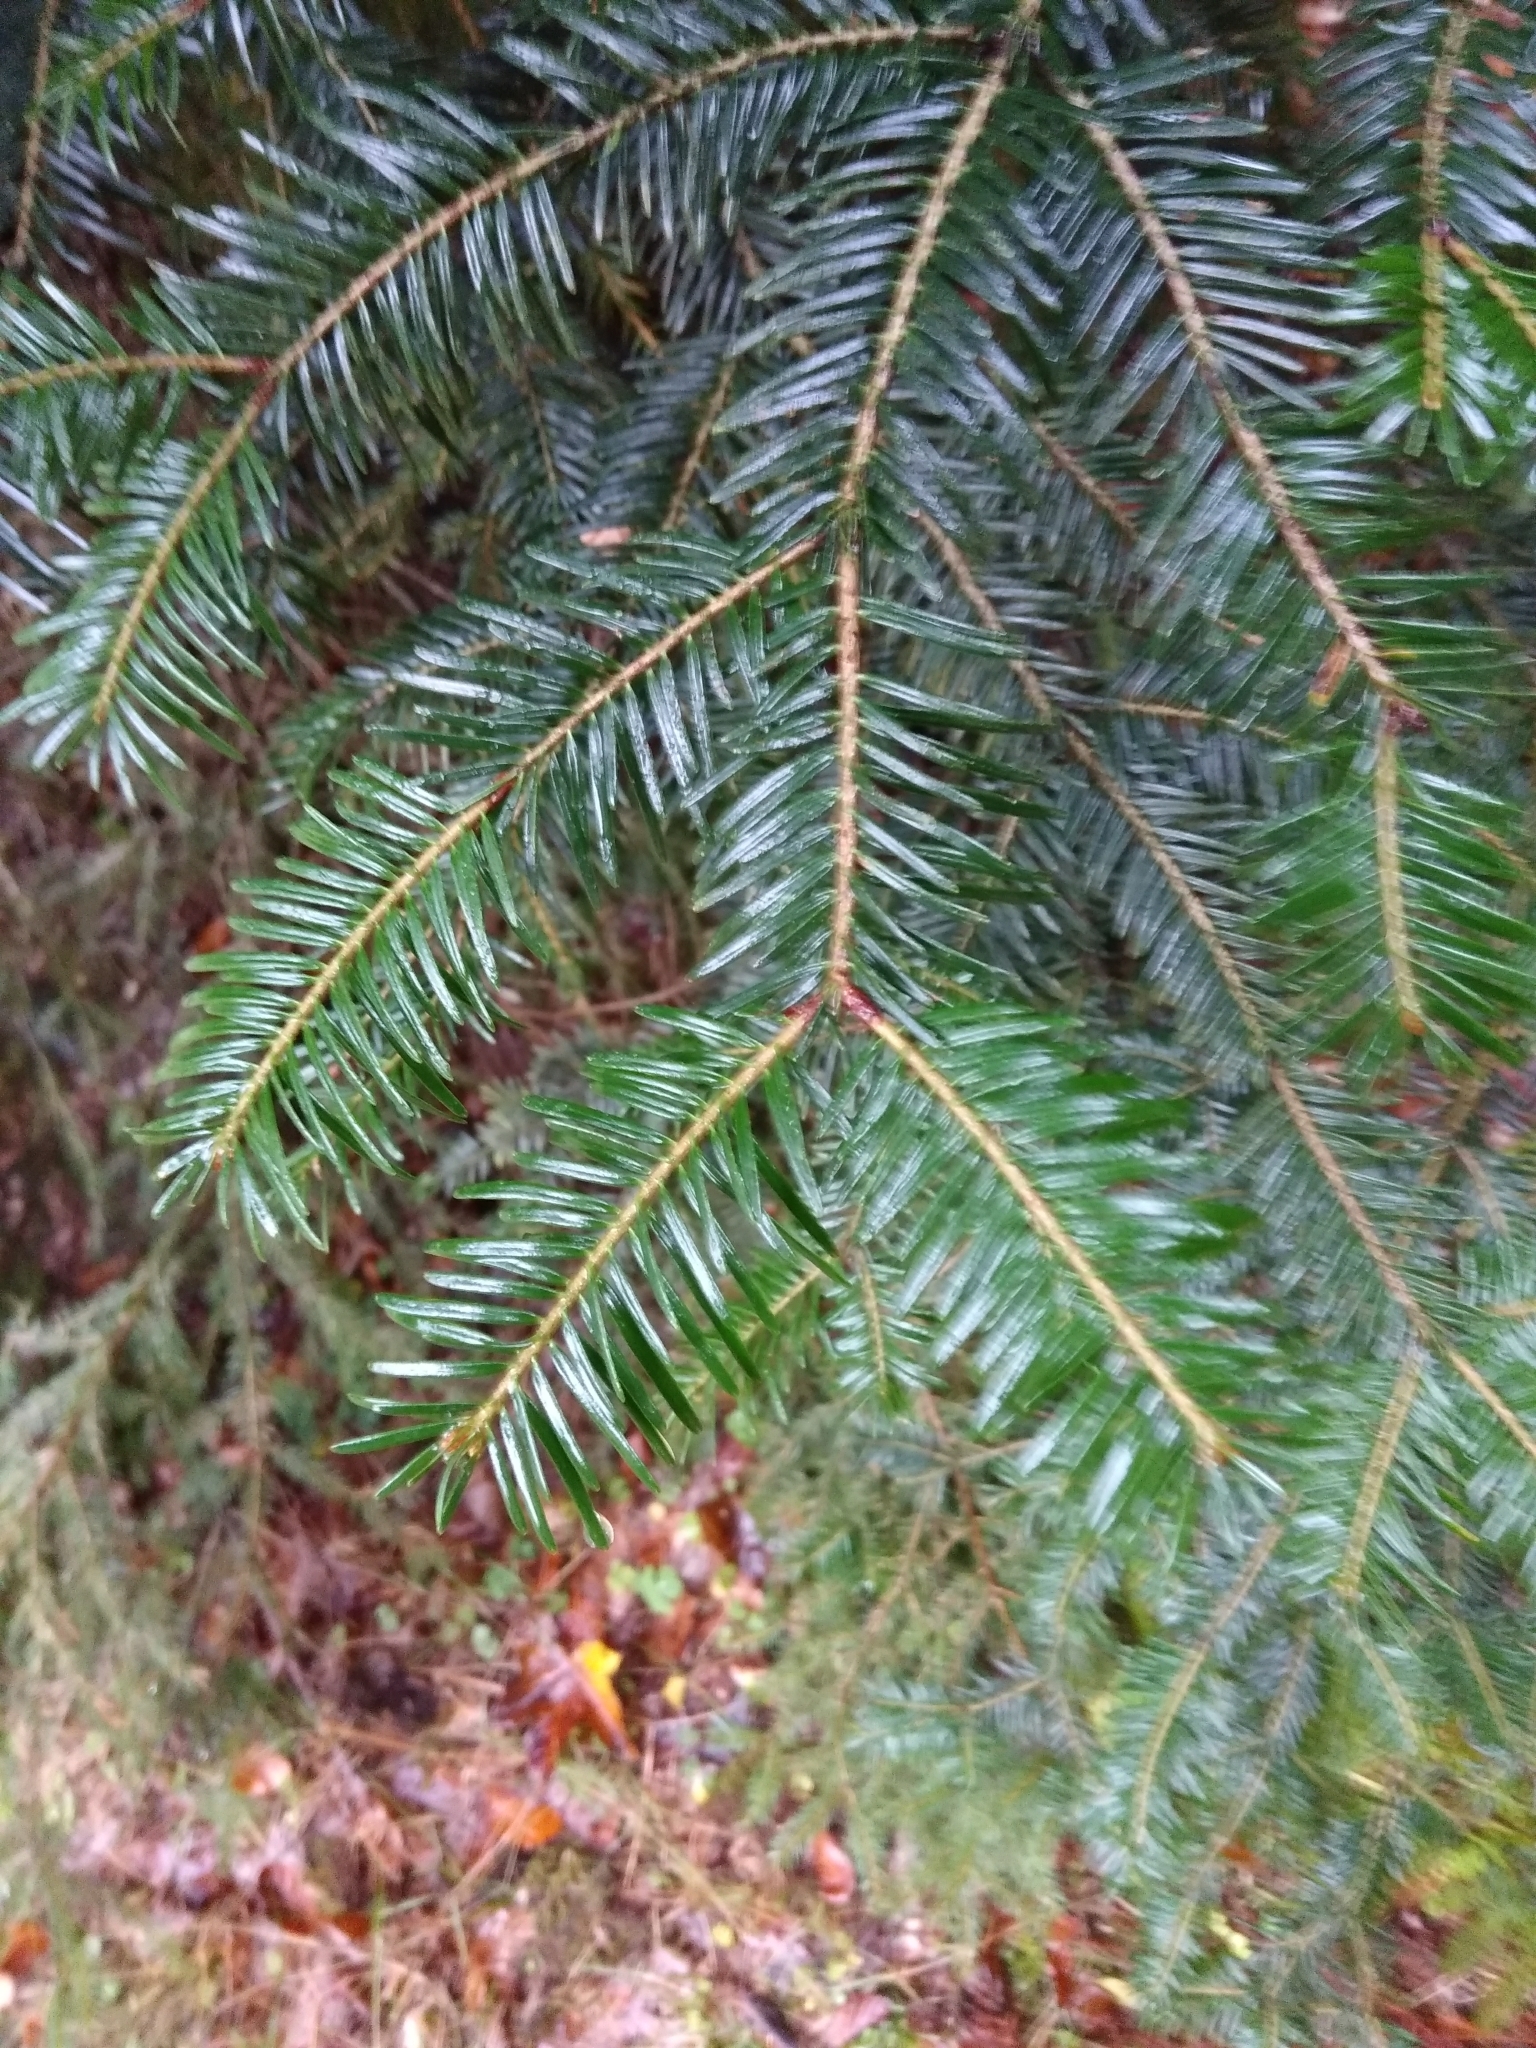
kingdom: Plantae
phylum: Tracheophyta
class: Pinopsida
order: Pinales
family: Pinaceae
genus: Abies
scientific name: Abies alba
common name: Silver fir
